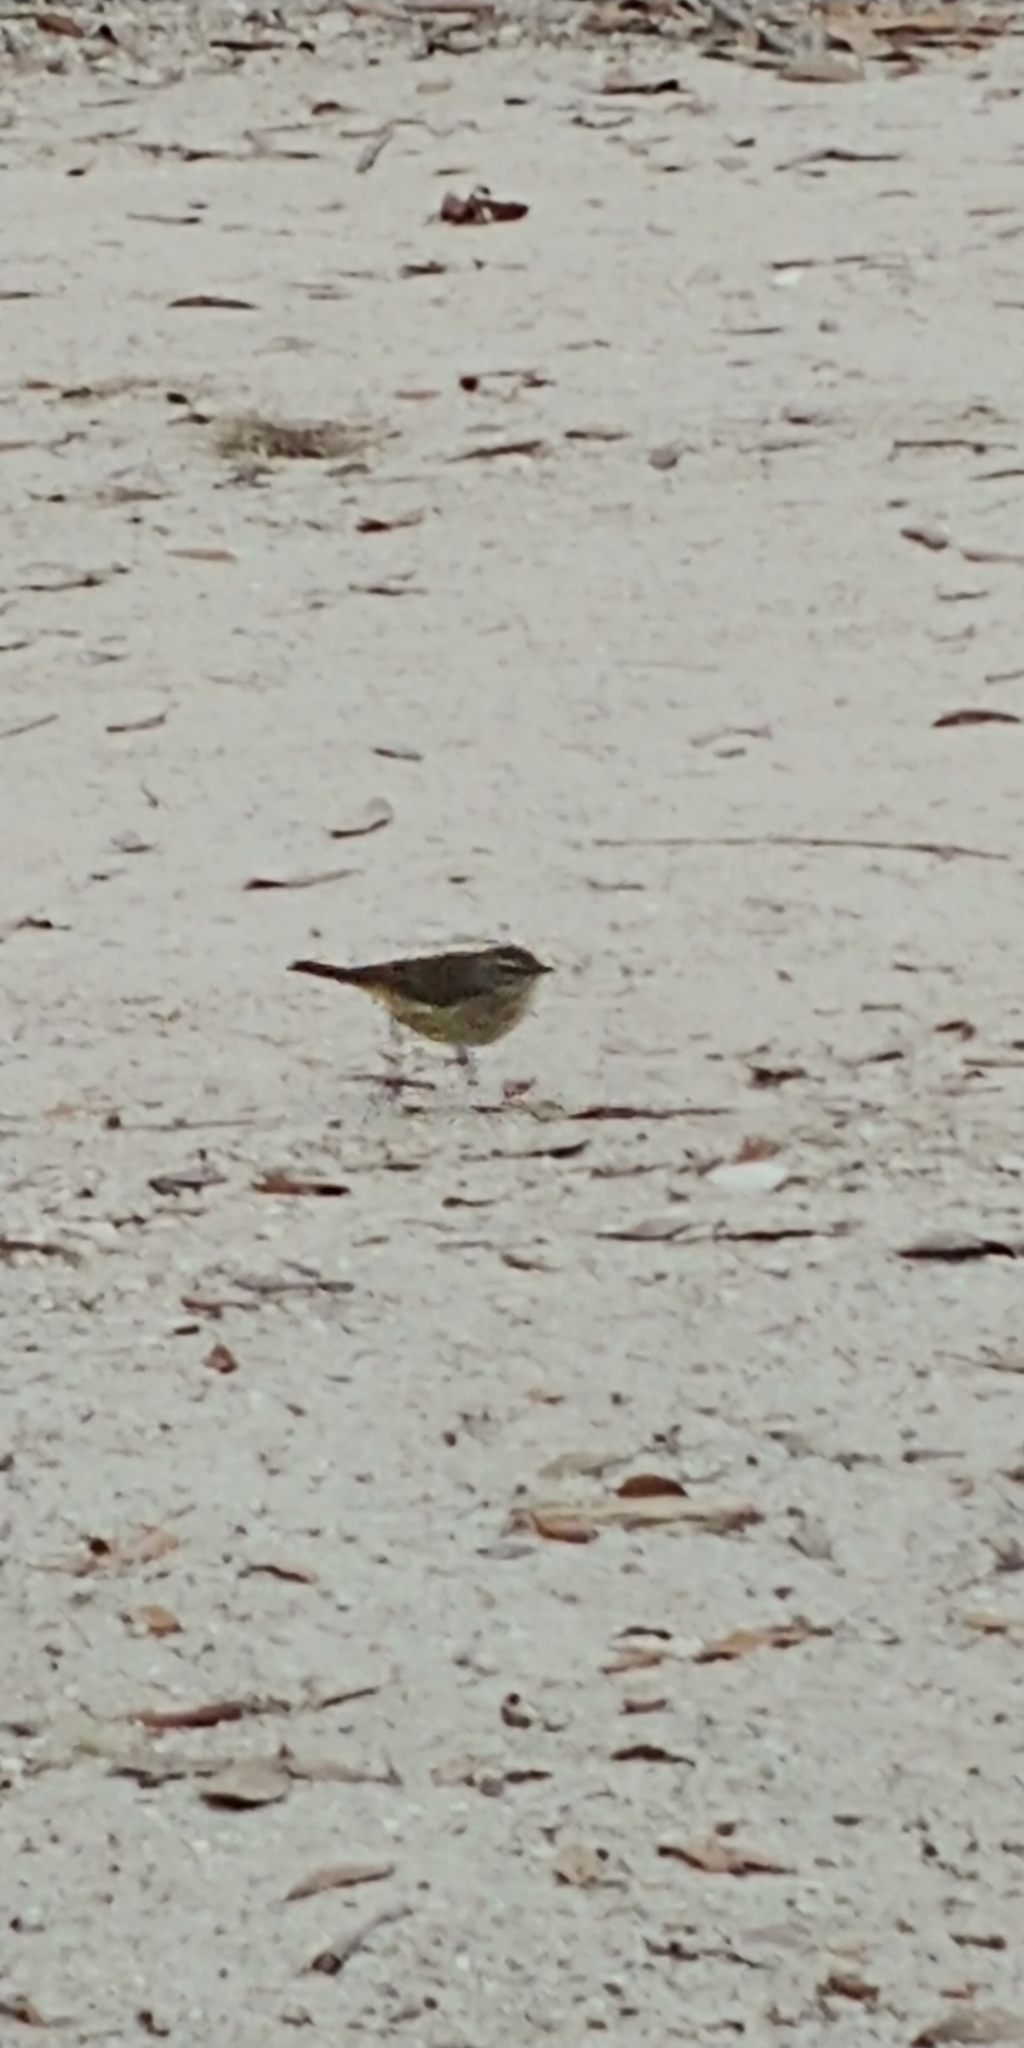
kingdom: Animalia
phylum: Chordata
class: Aves
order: Passeriformes
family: Parulidae
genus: Setophaga
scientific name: Setophaga palmarum
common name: Palm warbler
